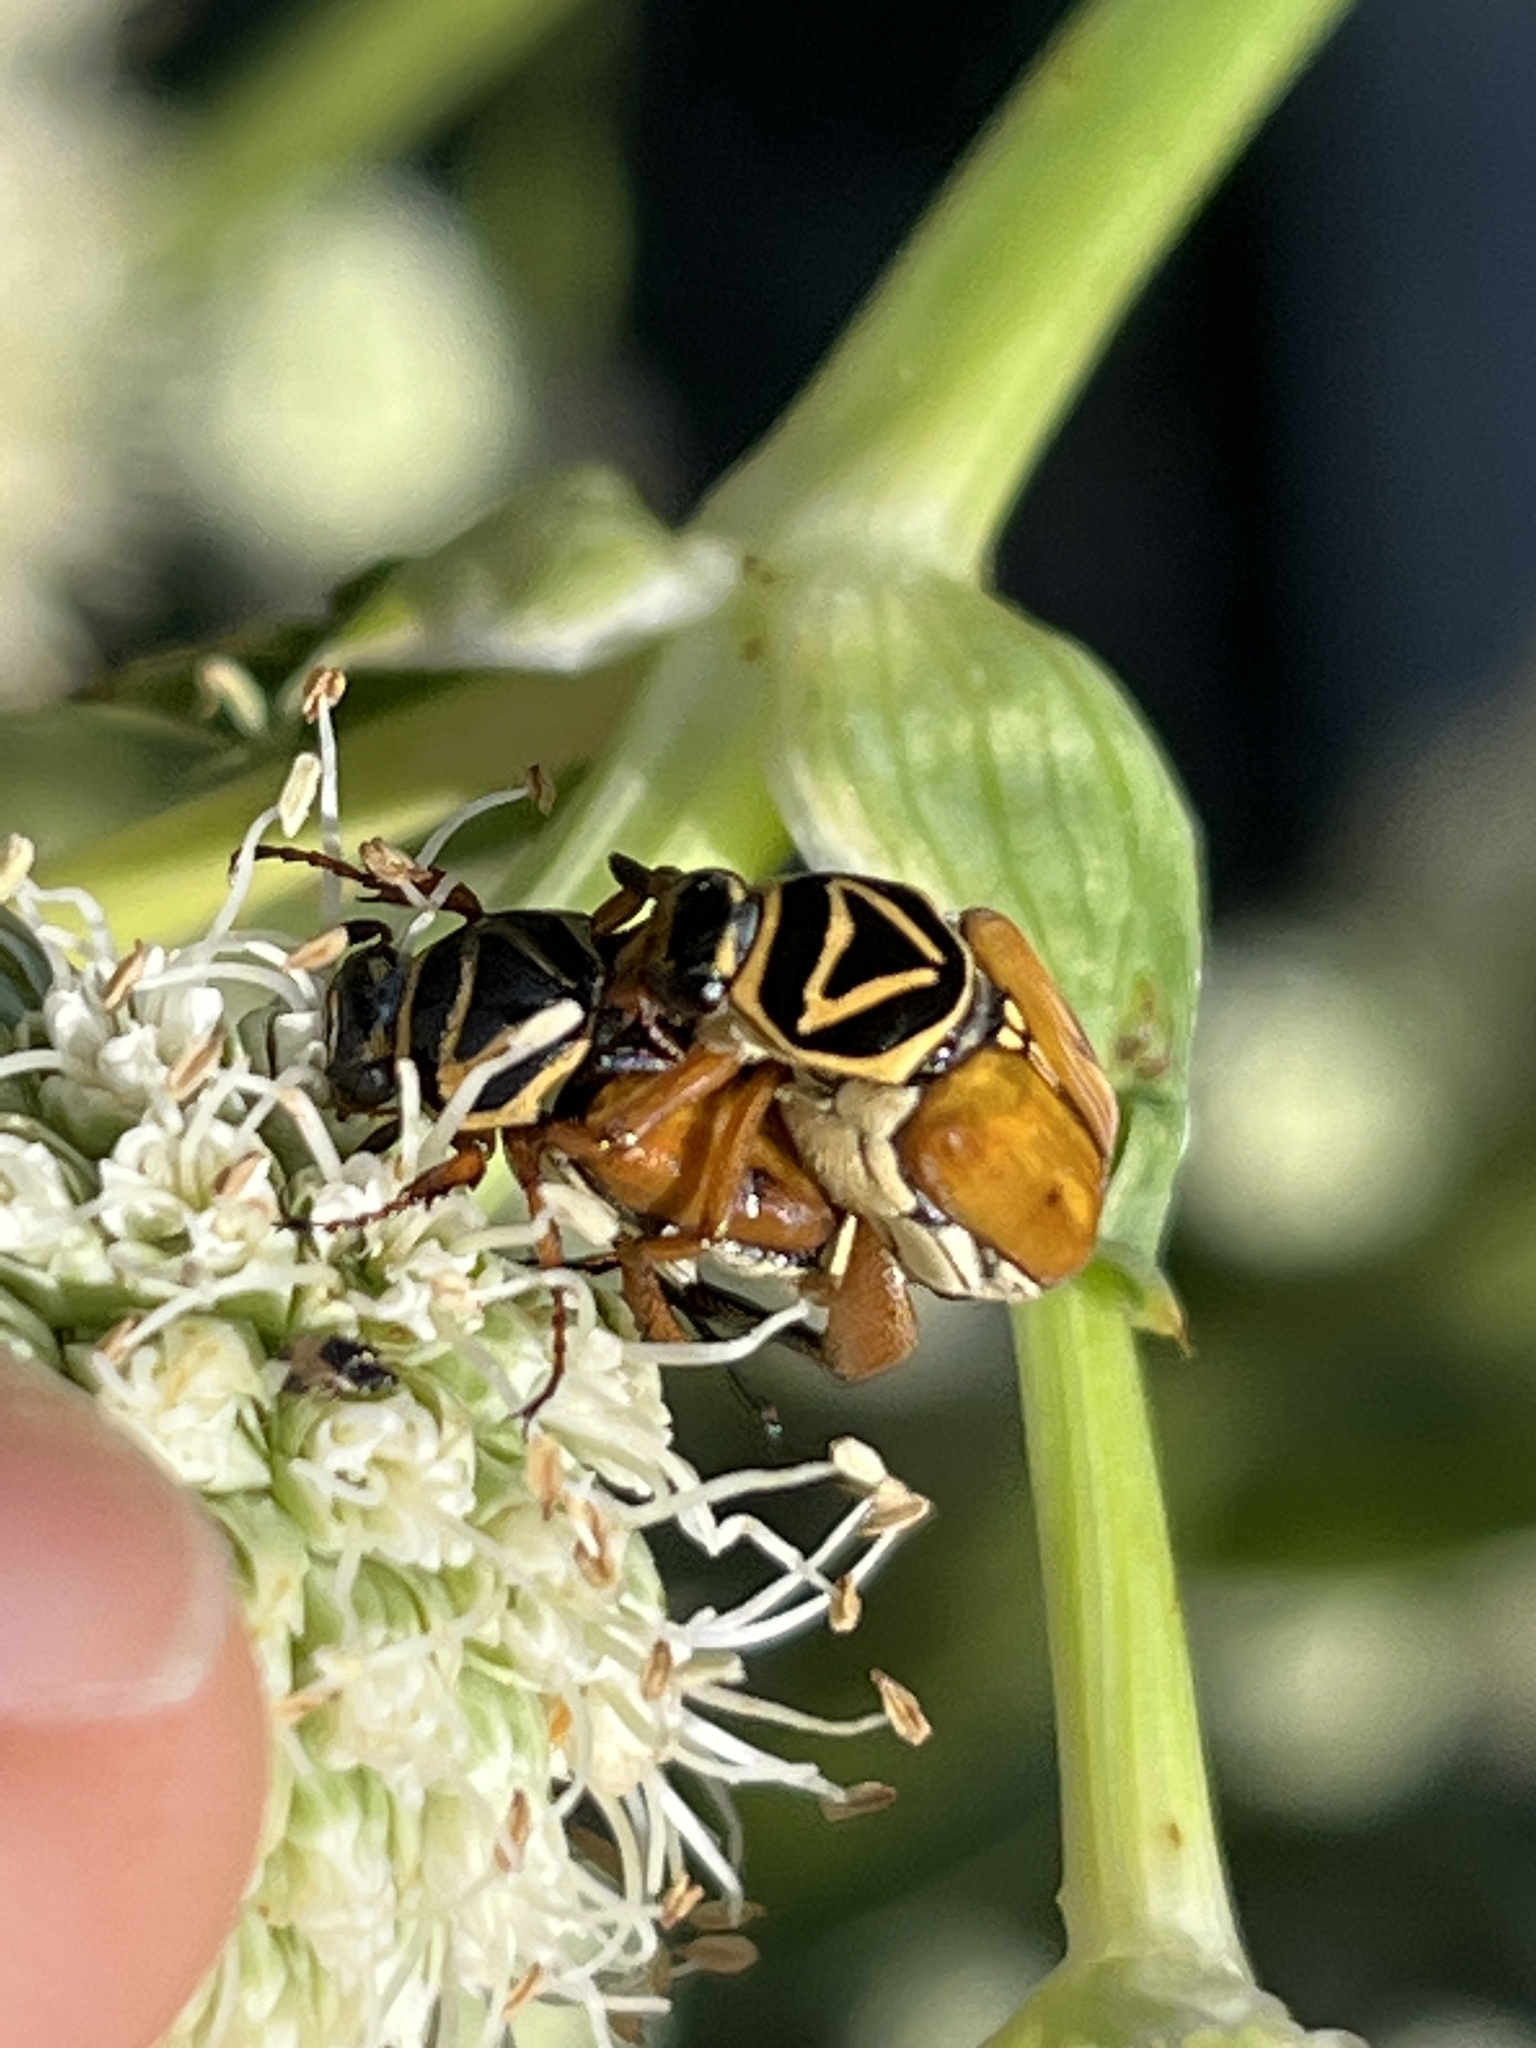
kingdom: Animalia
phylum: Arthropoda
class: Insecta
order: Coleoptera
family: Scarabaeidae
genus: Trigonopeltastes
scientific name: Trigonopeltastes delta
